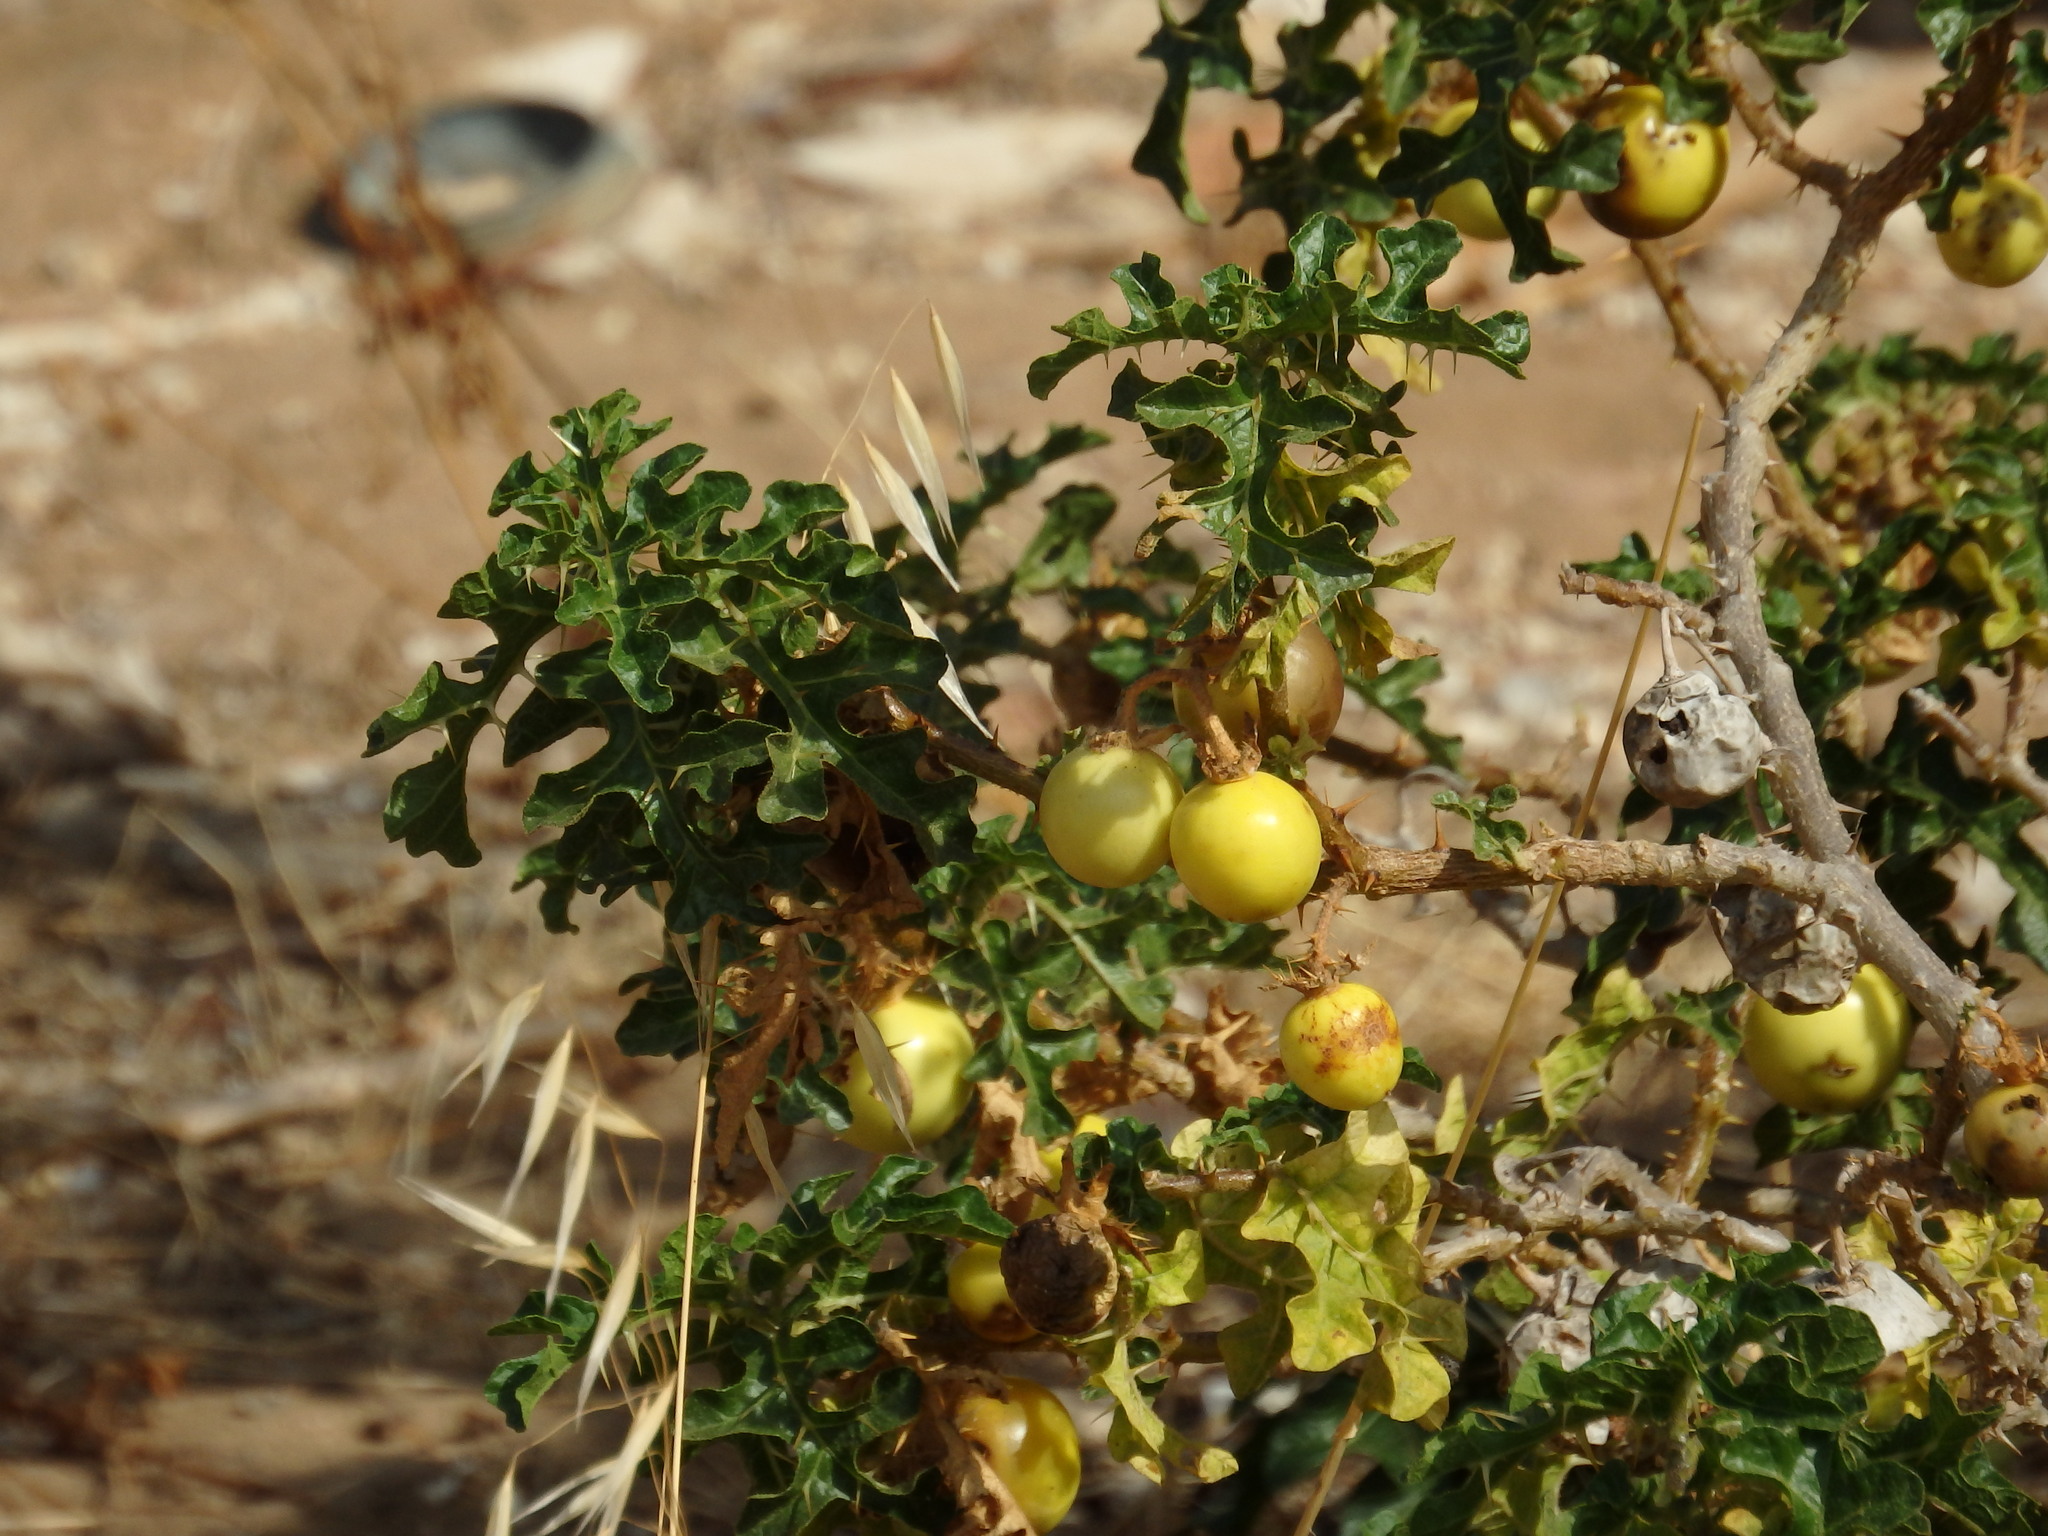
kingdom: Plantae
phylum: Tracheophyta
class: Magnoliopsida
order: Solanales
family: Solanaceae
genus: Solanum
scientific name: Solanum linnaeanum
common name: Nightshade
